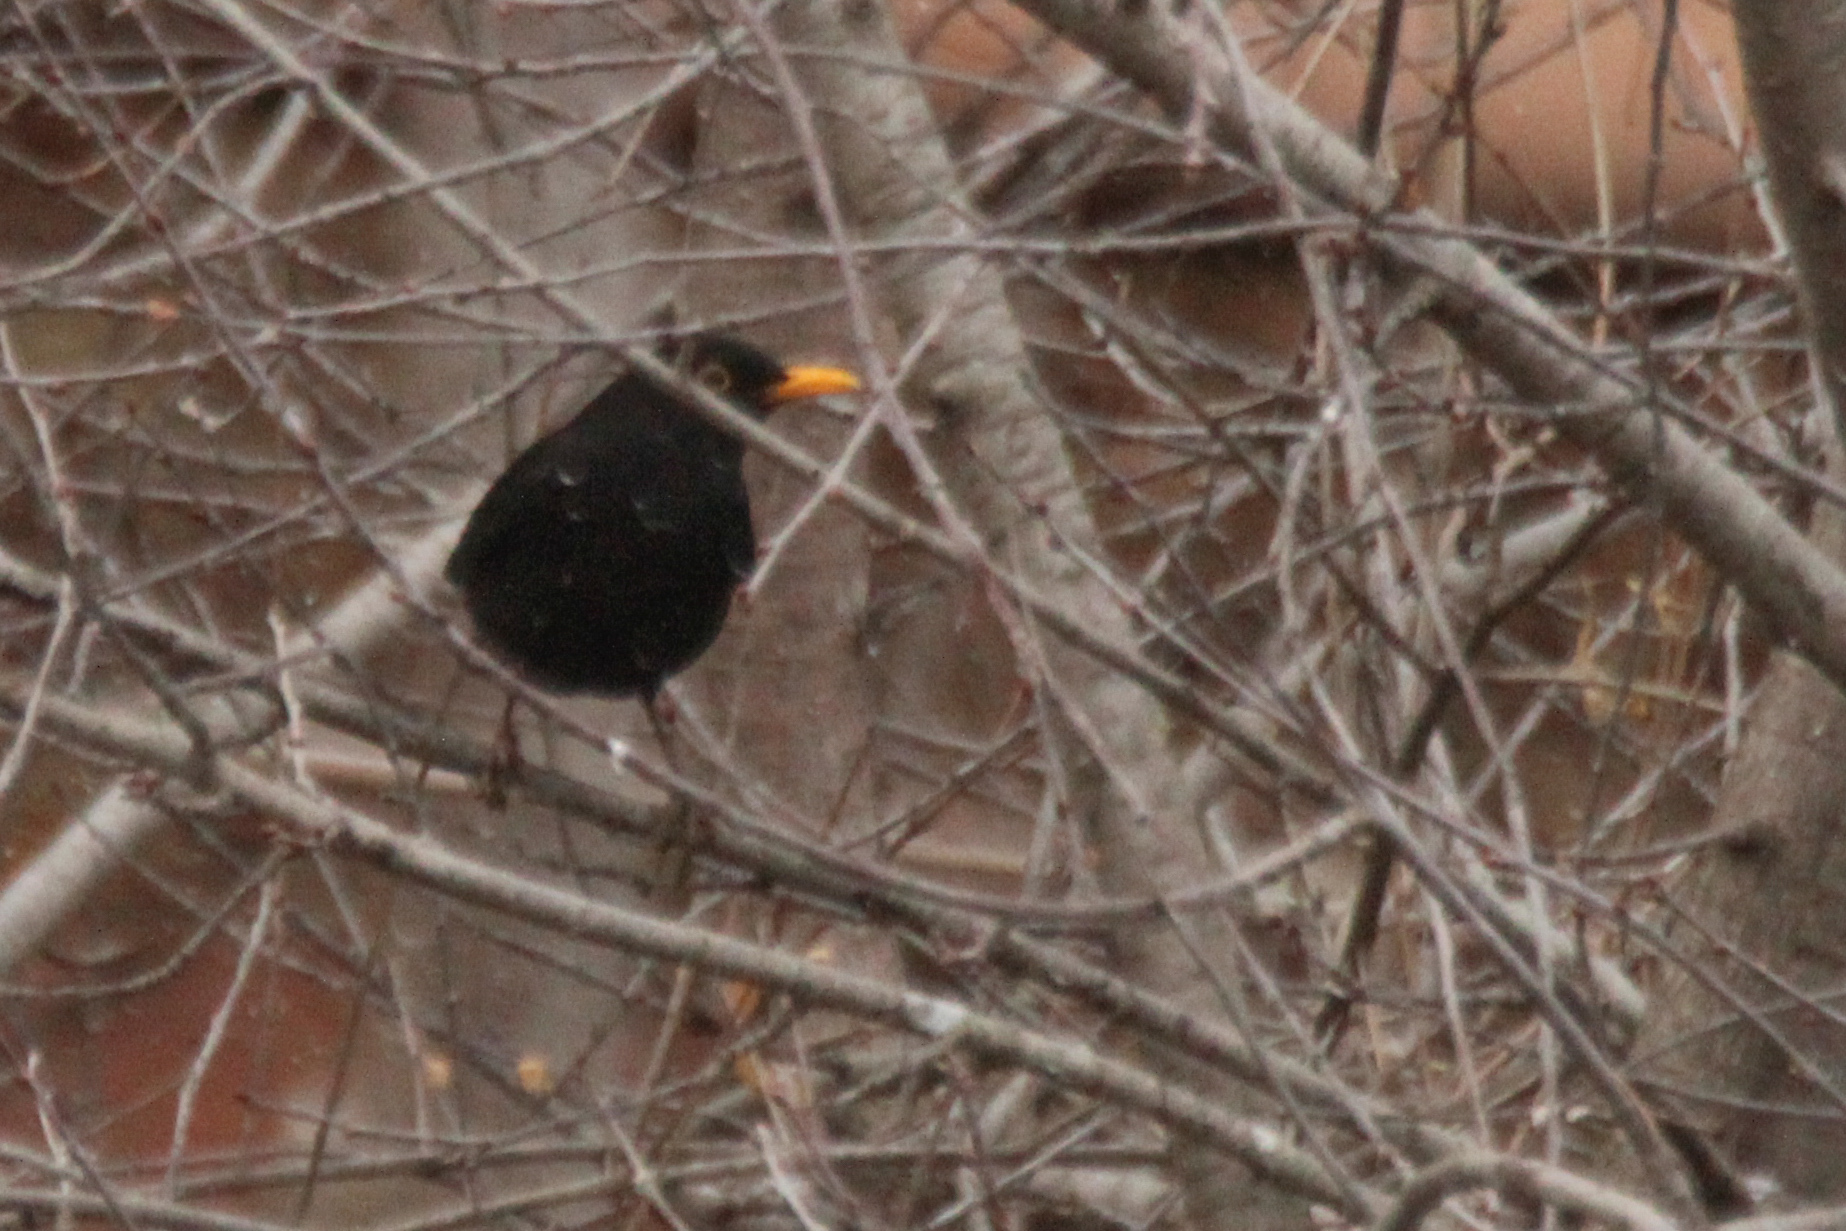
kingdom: Animalia
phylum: Chordata
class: Aves
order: Passeriformes
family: Turdidae
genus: Turdus
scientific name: Turdus merula
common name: Common blackbird
